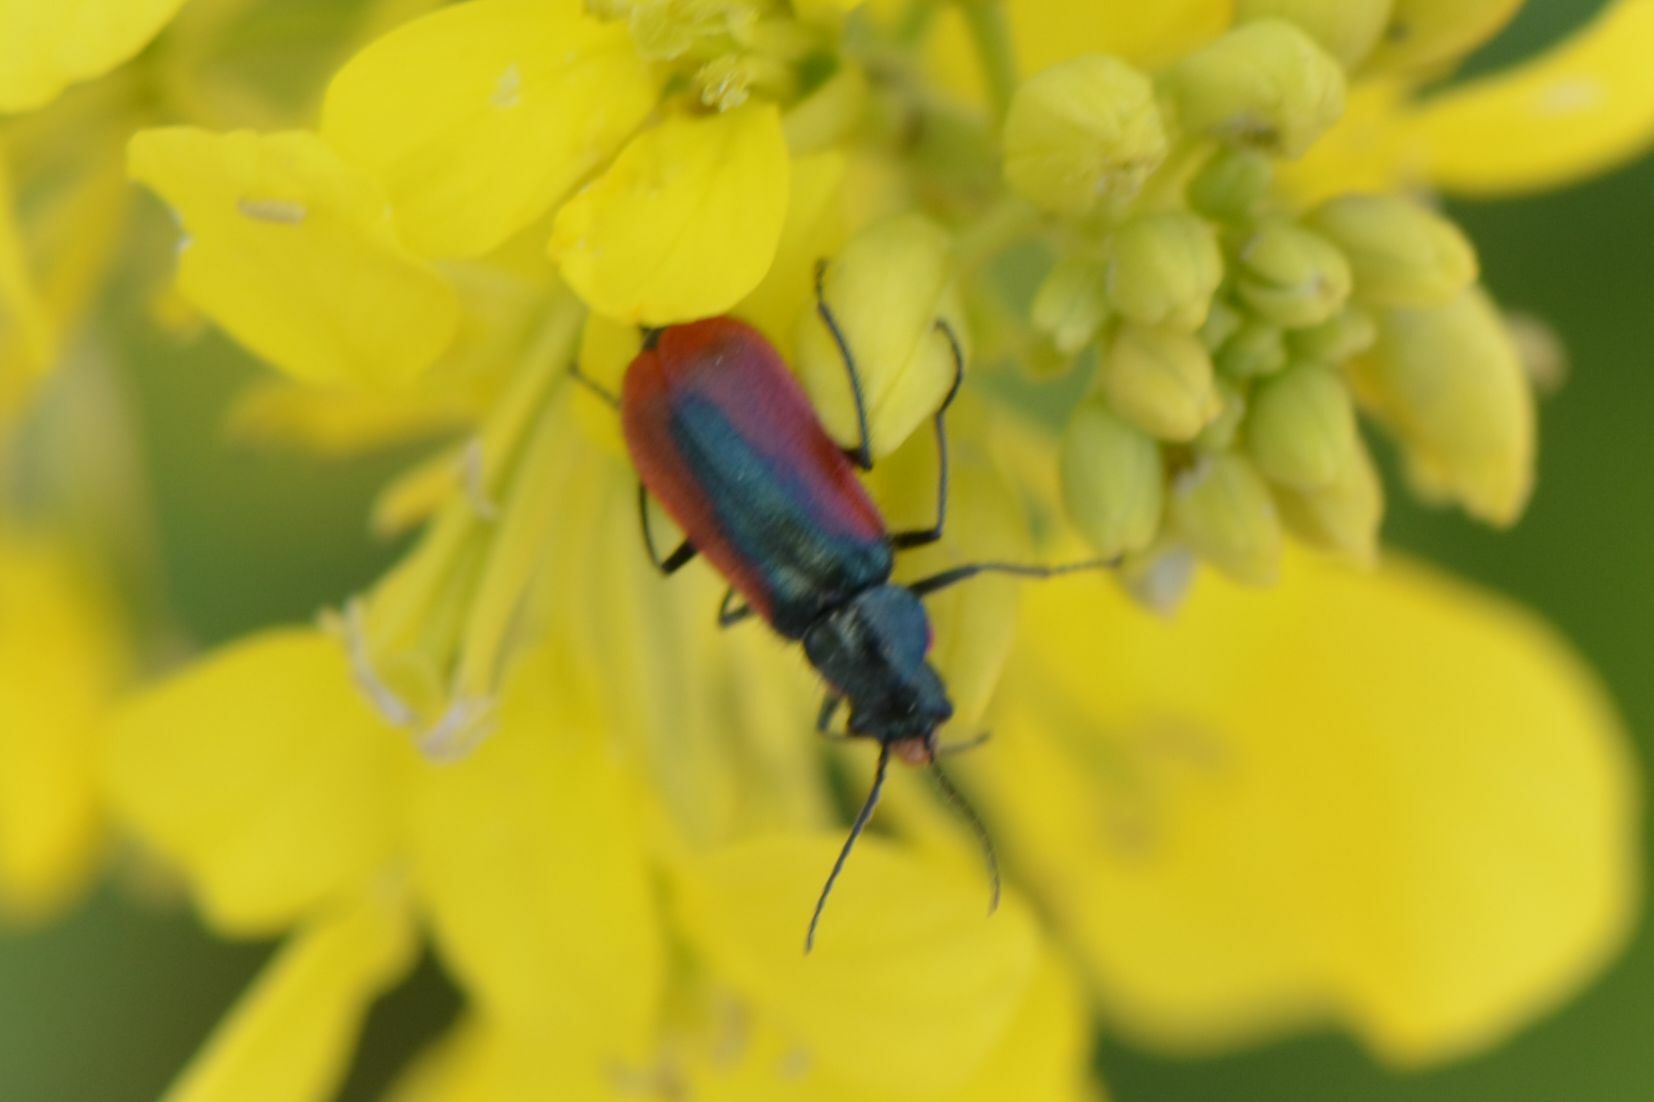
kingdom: Animalia
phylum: Arthropoda
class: Insecta
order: Coleoptera
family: Melyridae
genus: Malachius
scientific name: Malachius aeneus
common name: Scarlet malachite beetle
